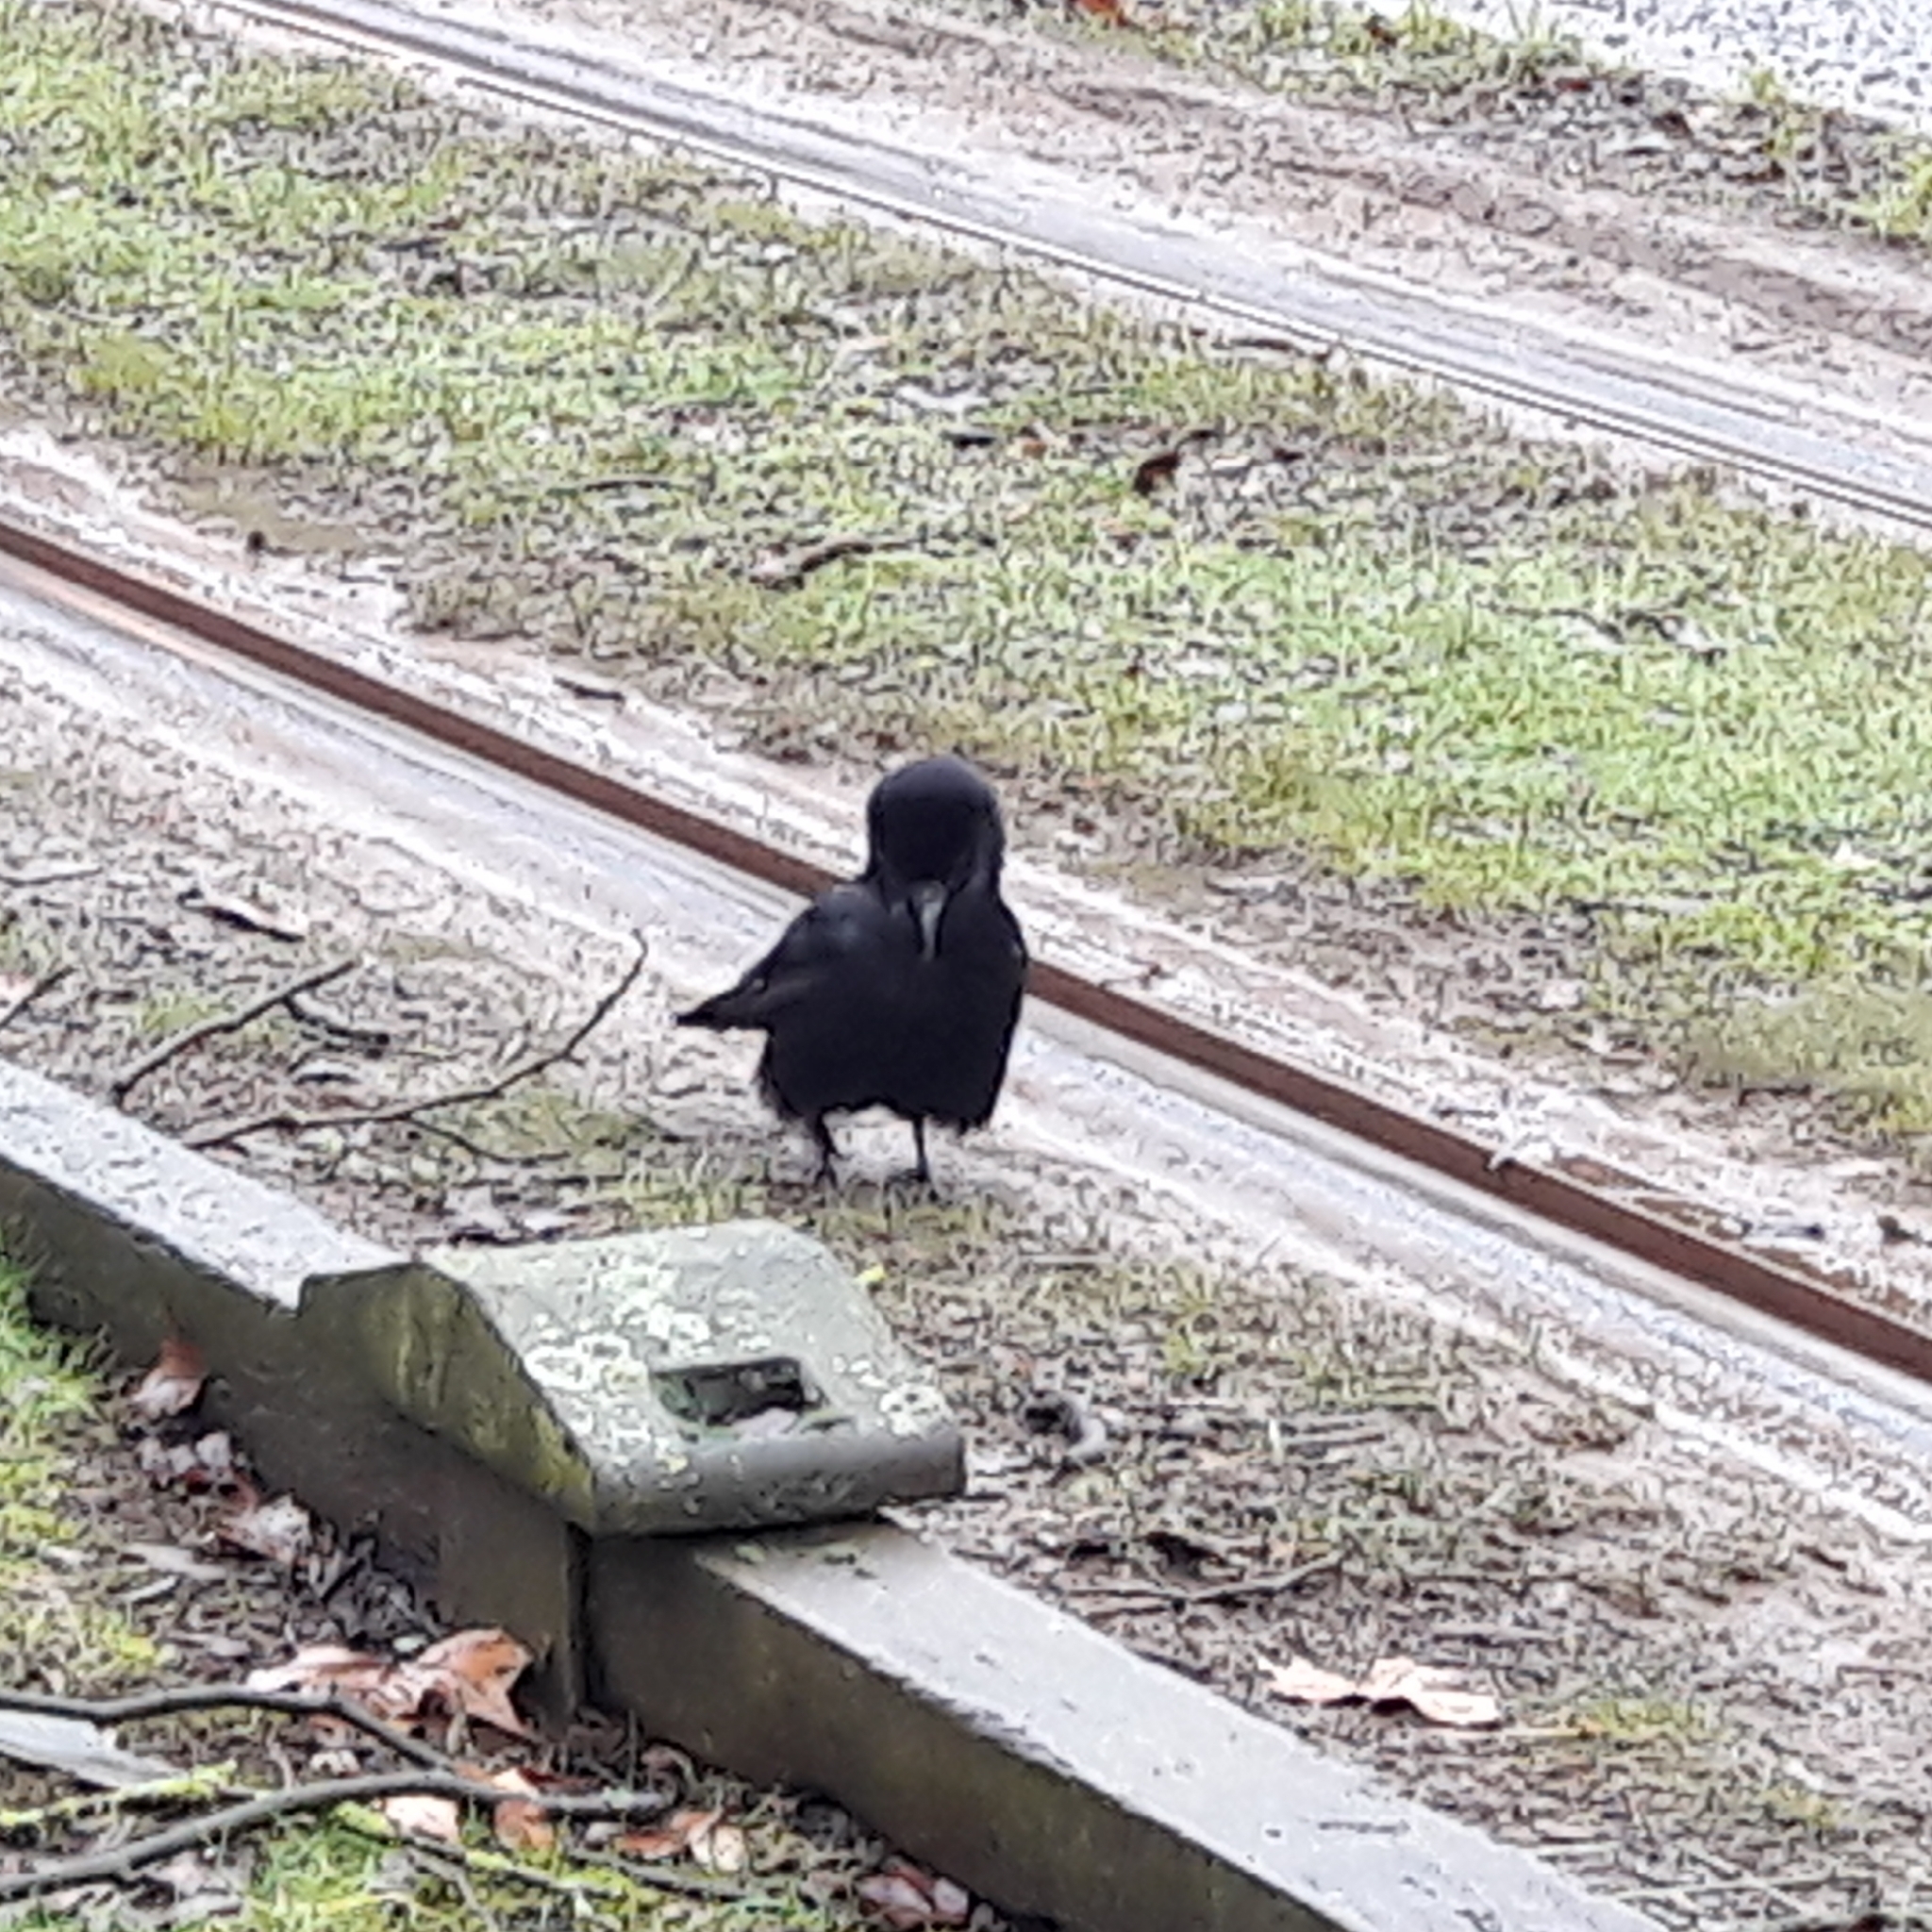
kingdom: Animalia
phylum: Chordata
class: Aves
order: Passeriformes
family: Corvidae
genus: Corvus
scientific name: Corvus corone
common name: Carrion crow
